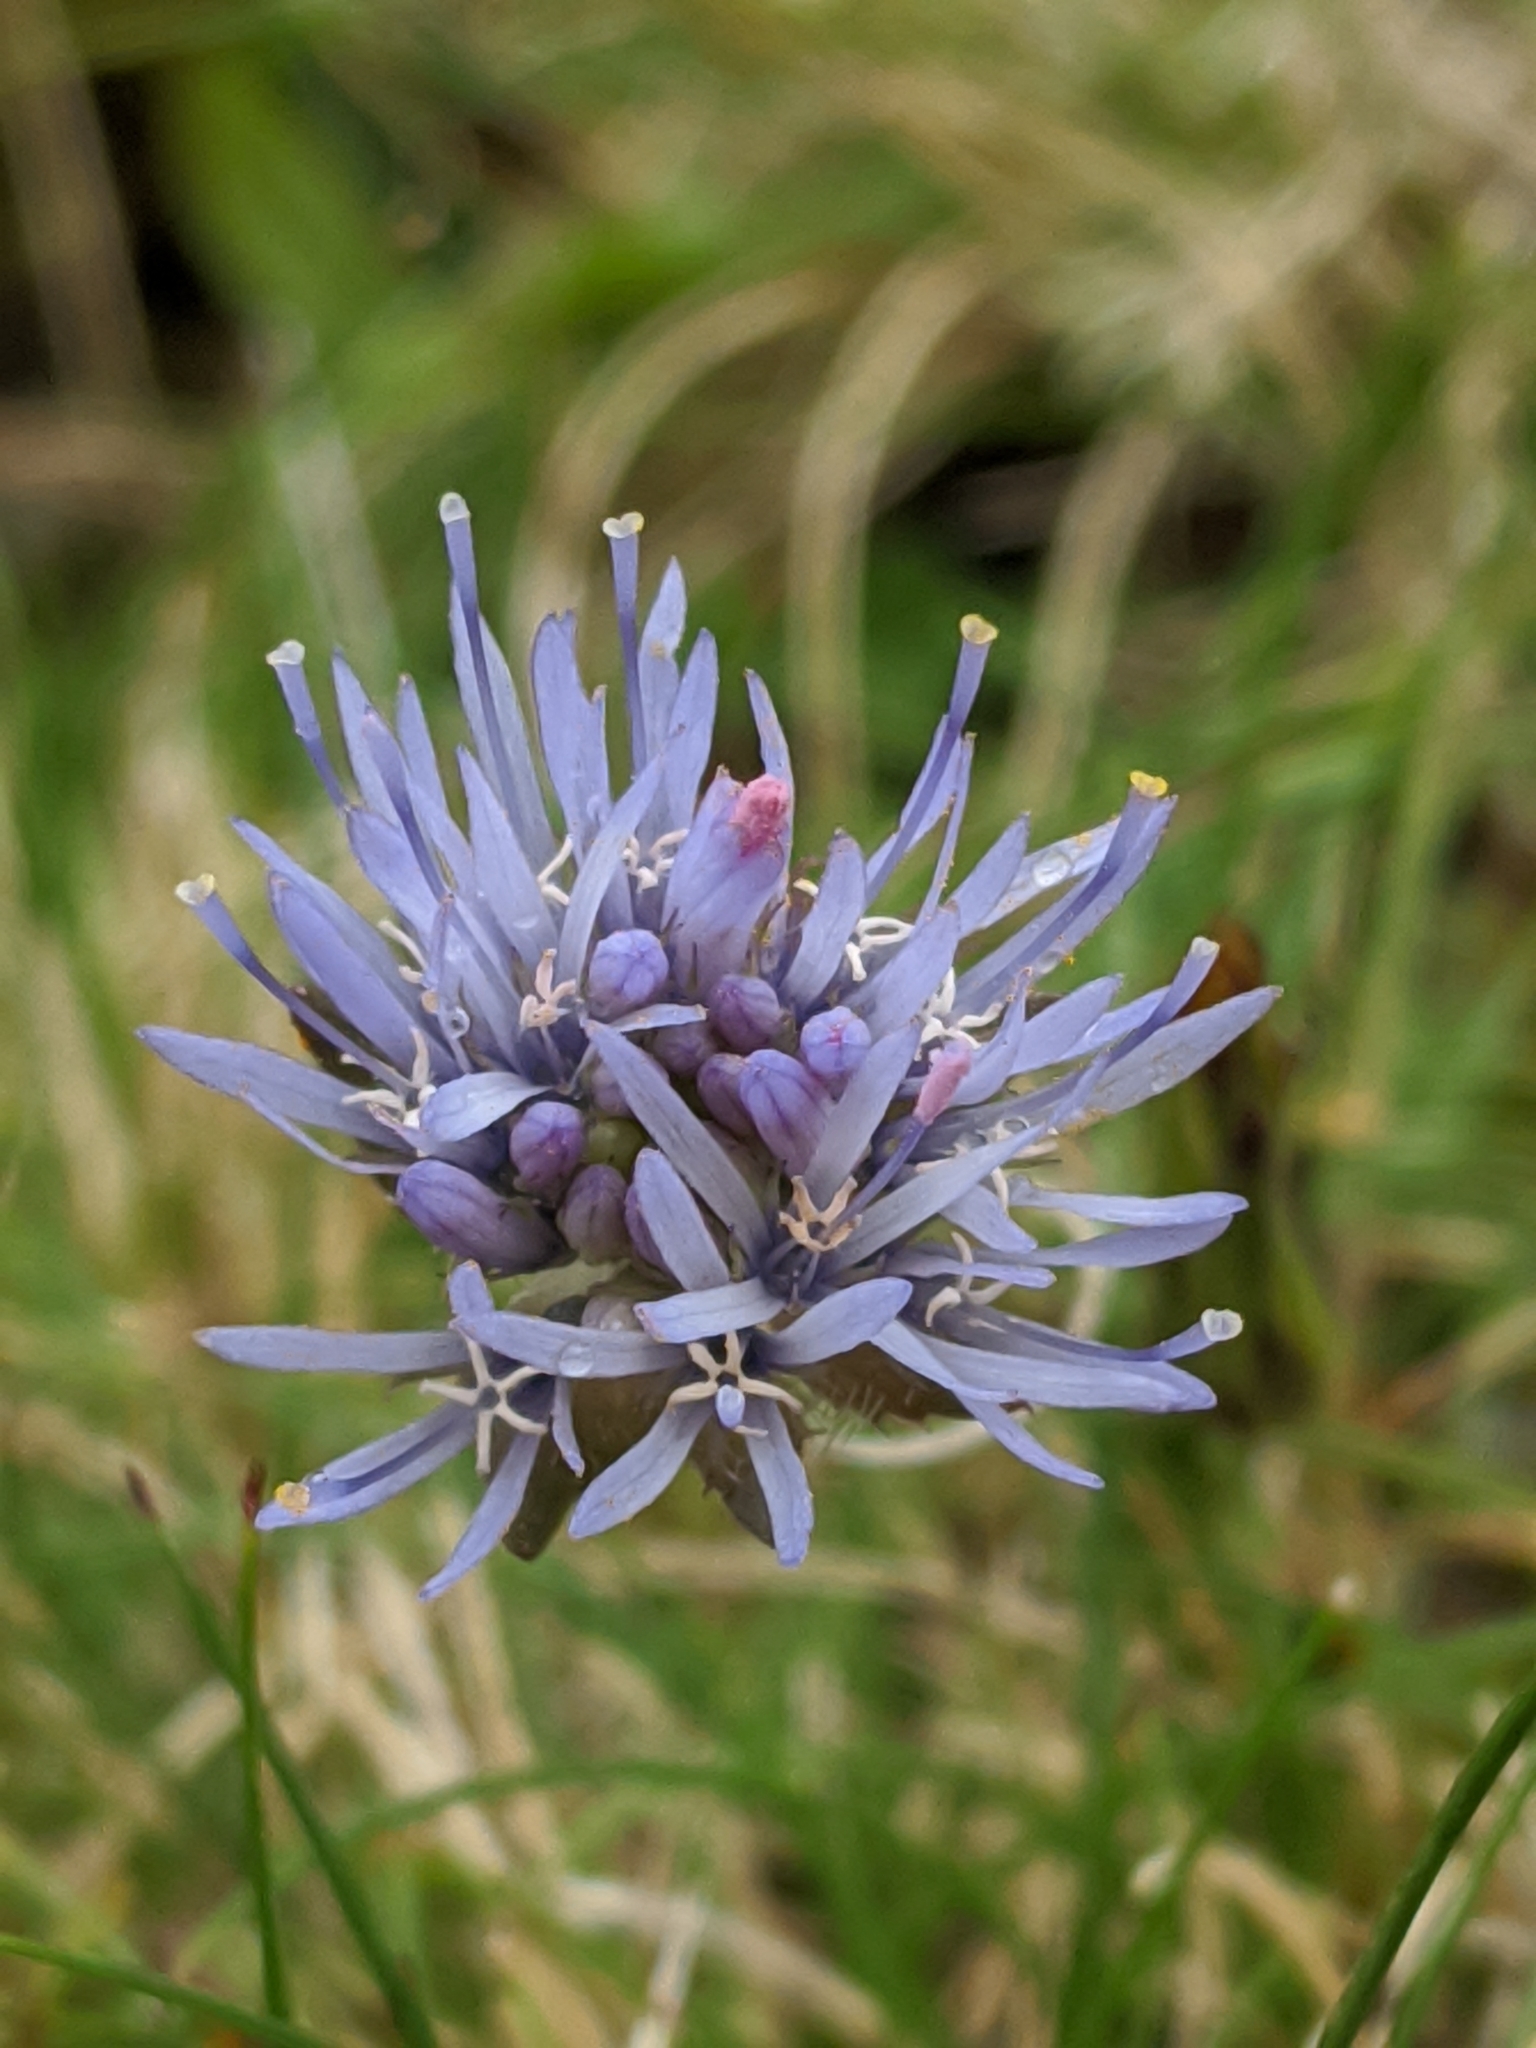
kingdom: Plantae
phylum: Tracheophyta
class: Magnoliopsida
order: Asterales
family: Campanulaceae
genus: Jasione
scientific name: Jasione montana
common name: Sheep's-bit
